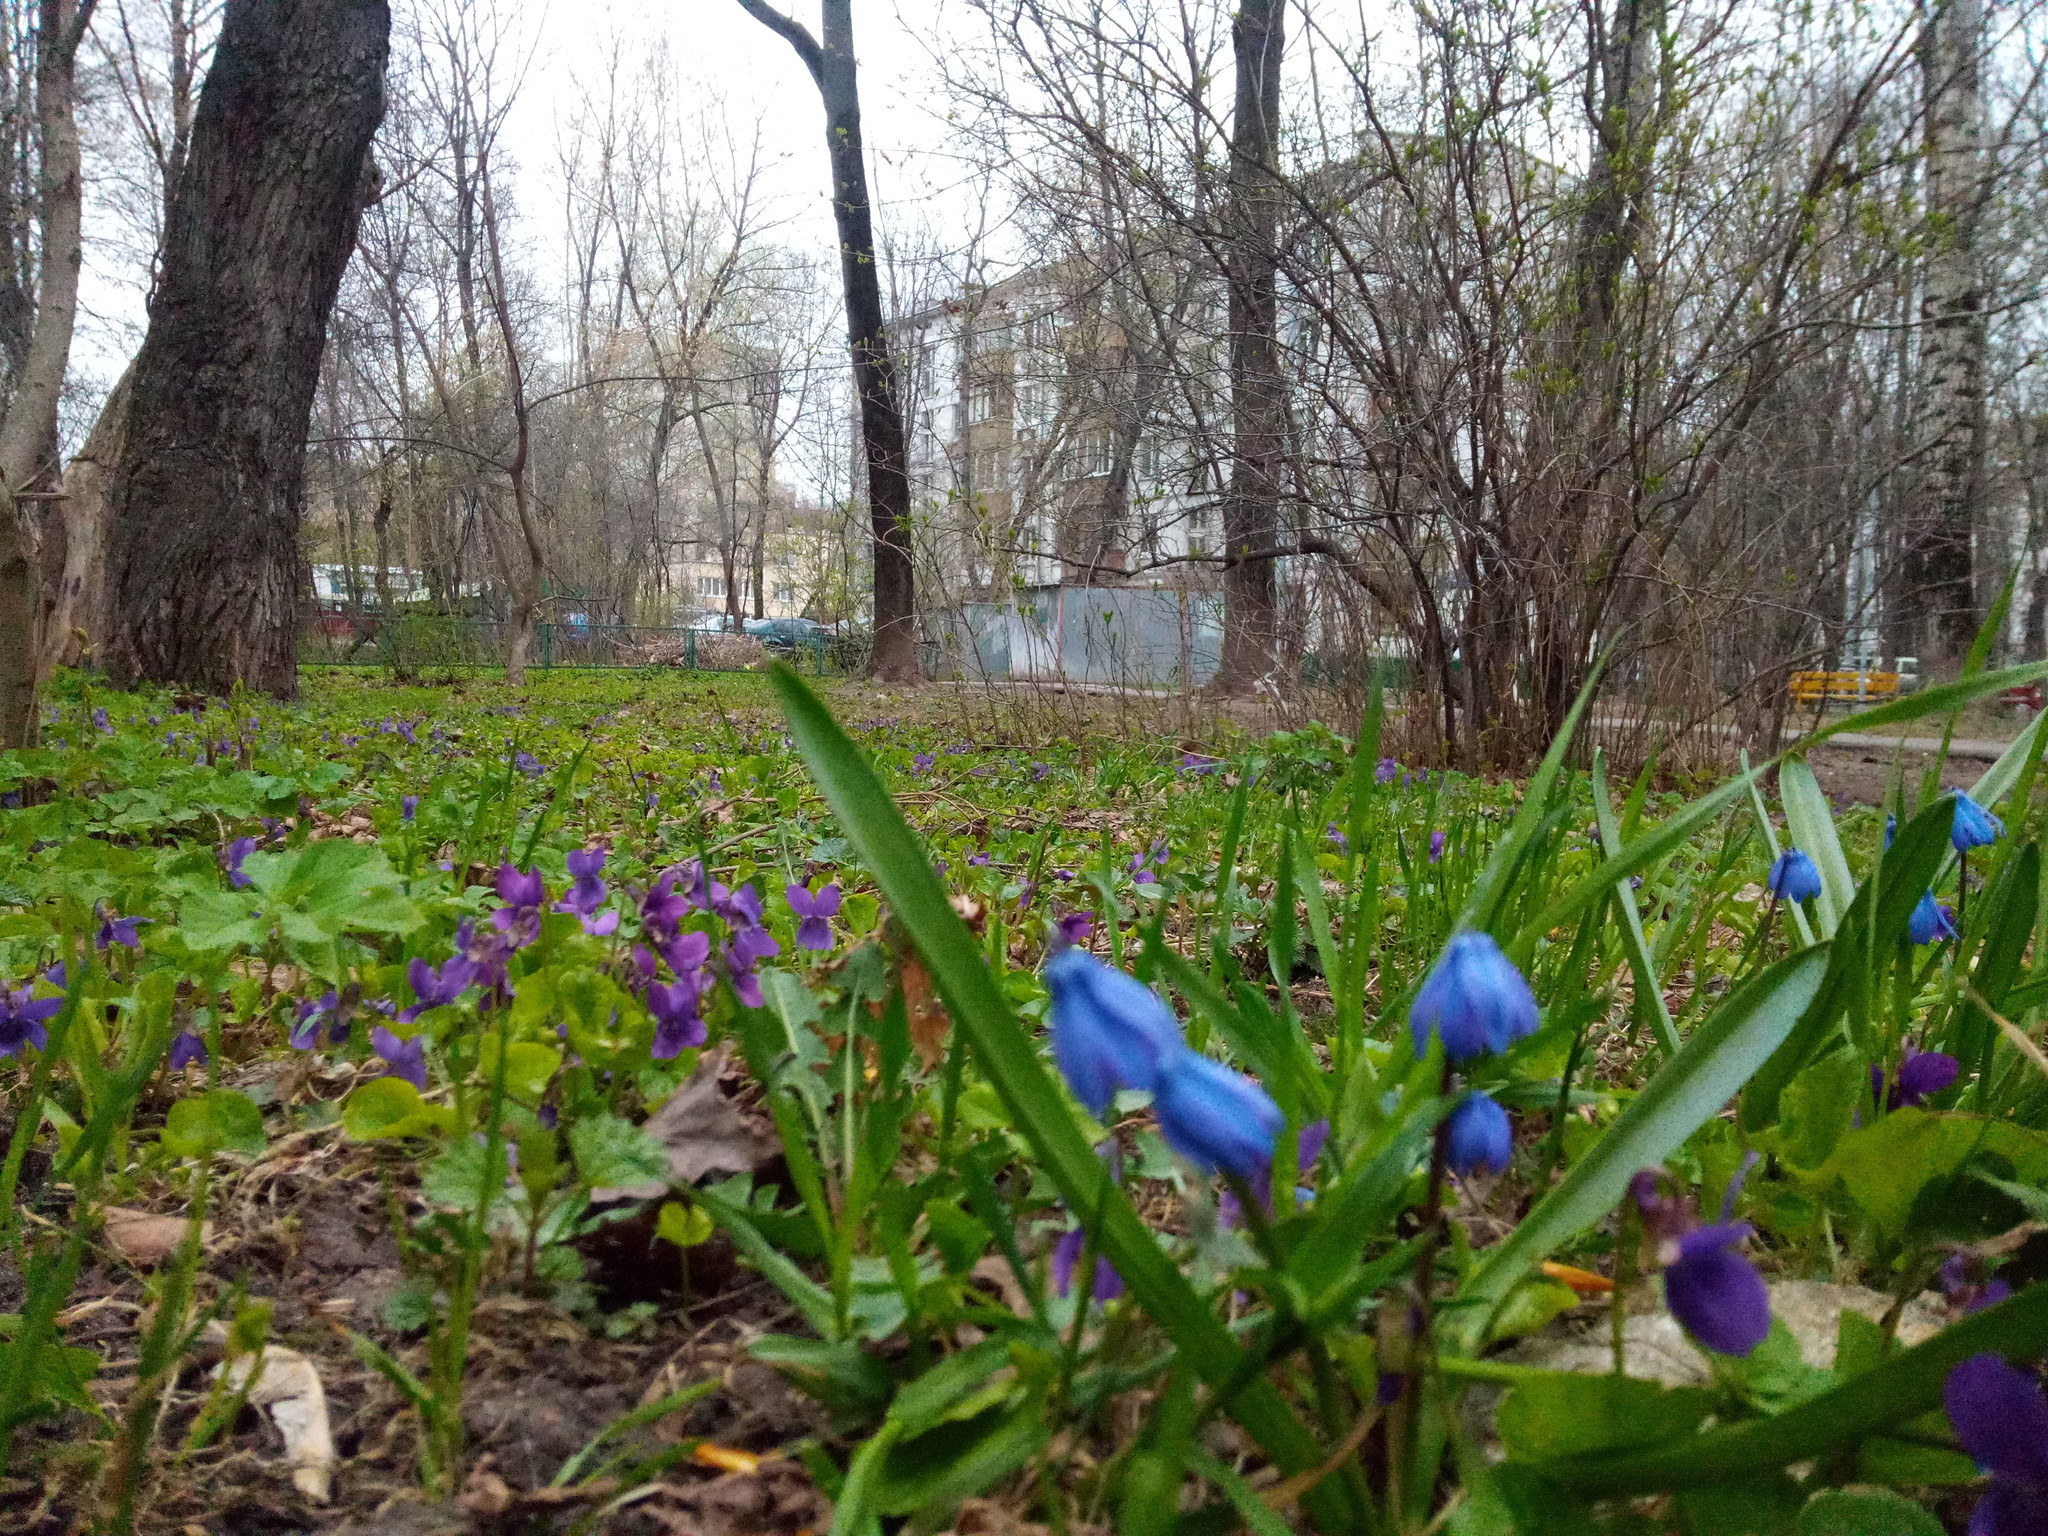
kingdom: Plantae
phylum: Tracheophyta
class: Magnoliopsida
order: Malpighiales
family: Violaceae
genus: Viola
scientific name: Viola odorata
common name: Sweet violet
